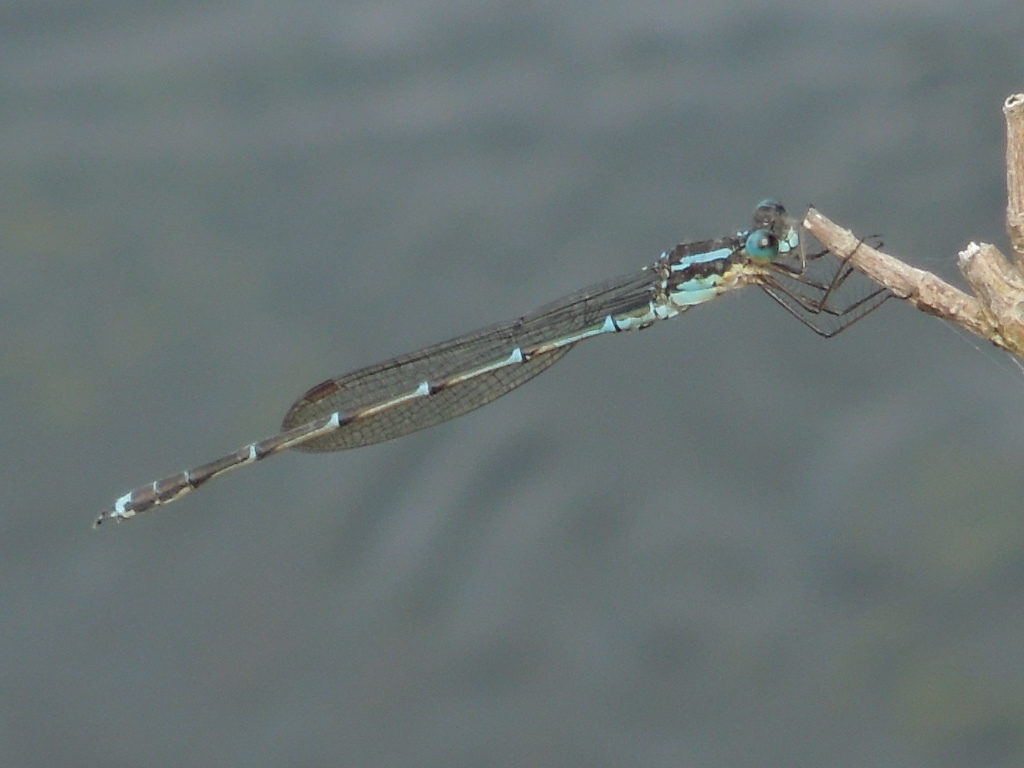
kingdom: Animalia
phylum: Arthropoda
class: Insecta
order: Odonata
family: Lestidae
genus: Austrolestes
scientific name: Austrolestes colensonis
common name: Blue damselfly
